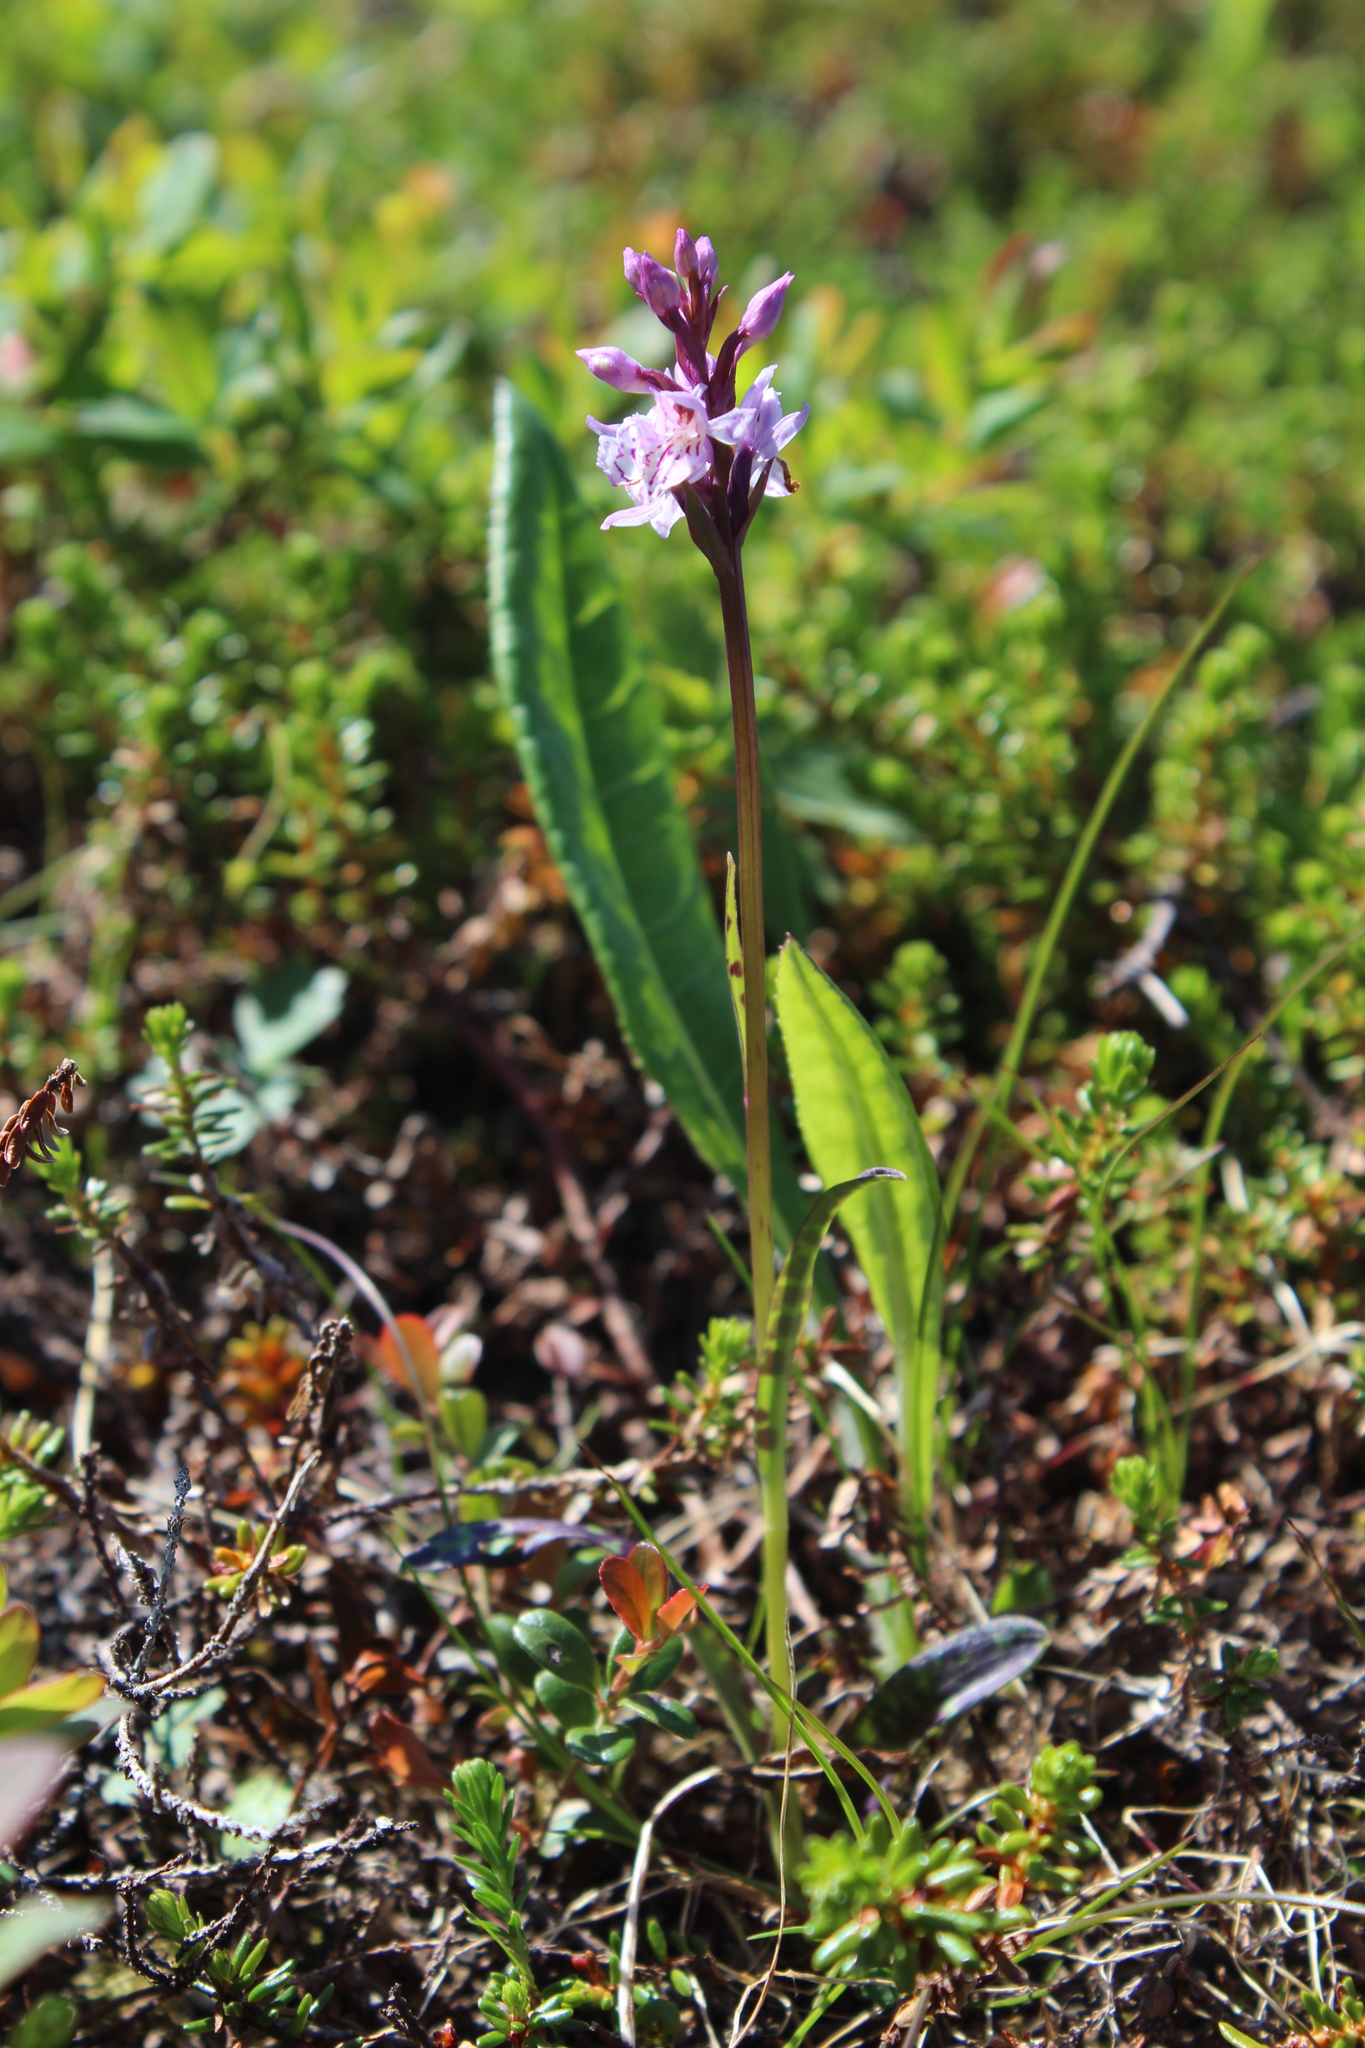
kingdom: Plantae
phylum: Tracheophyta
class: Liliopsida
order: Asparagales
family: Orchidaceae
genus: Dactylorhiza
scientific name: Dactylorhiza maculata
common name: Heath spotted-orchid
